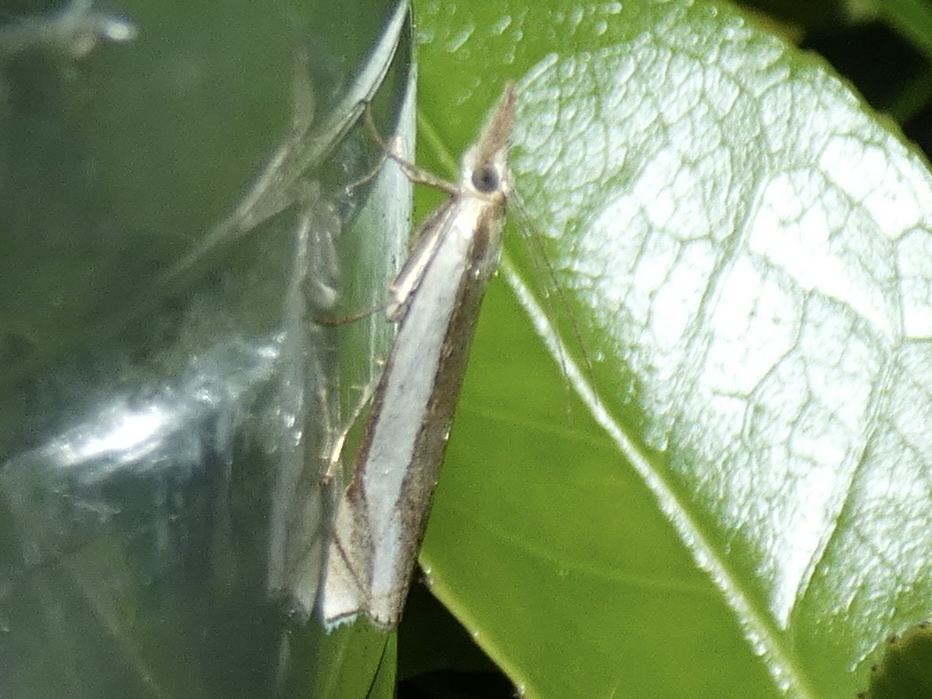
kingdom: Animalia
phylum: Arthropoda
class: Insecta
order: Lepidoptera
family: Crambidae
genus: Crambus
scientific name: Crambus pascuella
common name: Inlaid grass-veneer
